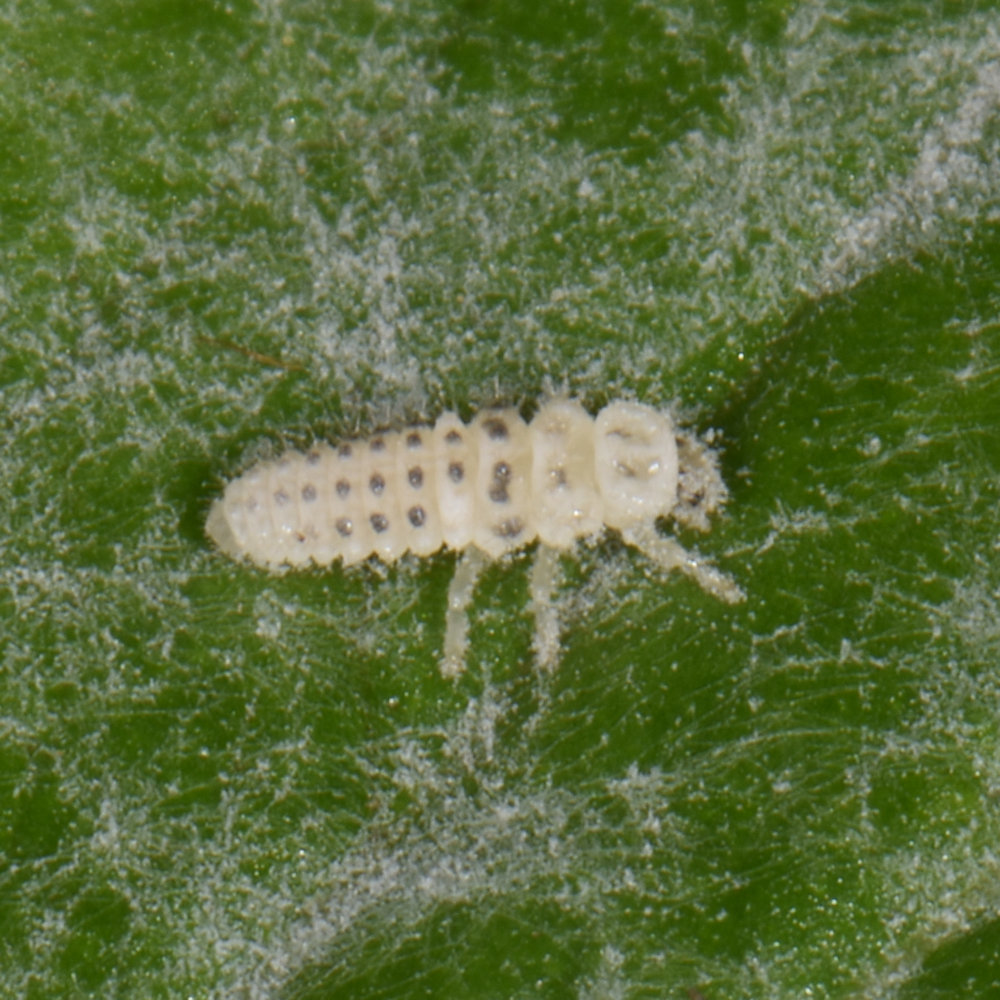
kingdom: Animalia
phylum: Arthropoda
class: Insecta
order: Coleoptera
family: Coccinellidae
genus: Psyllobora
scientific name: Psyllobora vigintimaculata
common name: Ladybird beetle
